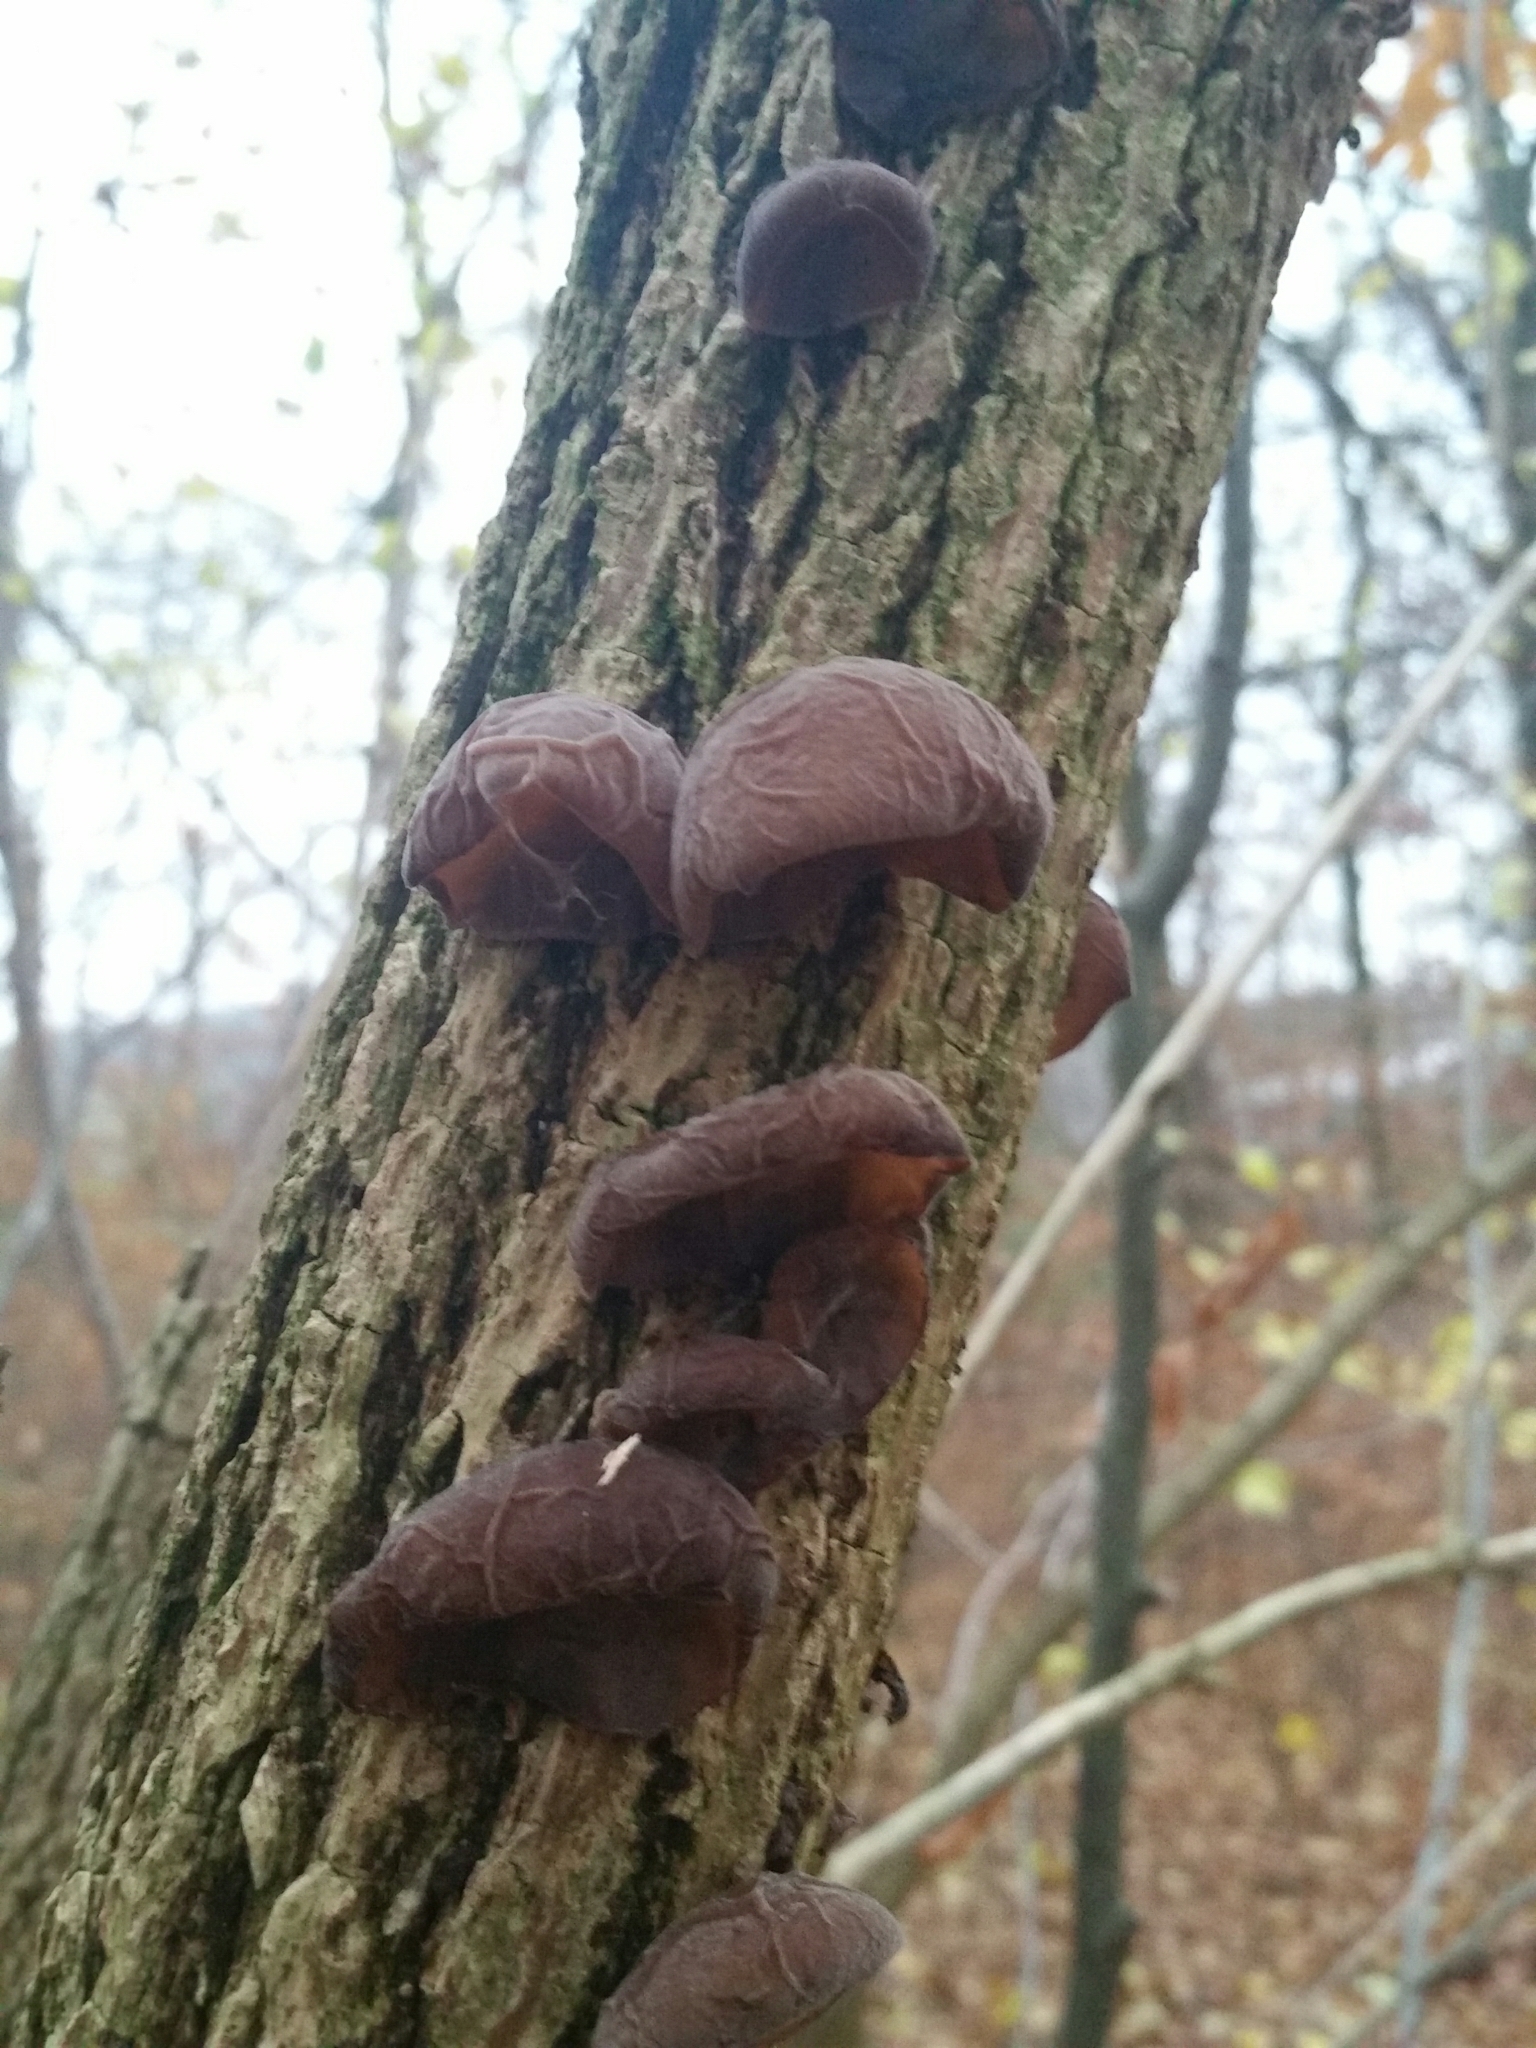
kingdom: Fungi
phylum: Basidiomycota
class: Agaricomycetes
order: Auriculariales
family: Auriculariaceae
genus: Auricularia
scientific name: Auricularia auricula-judae
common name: Jelly ear
